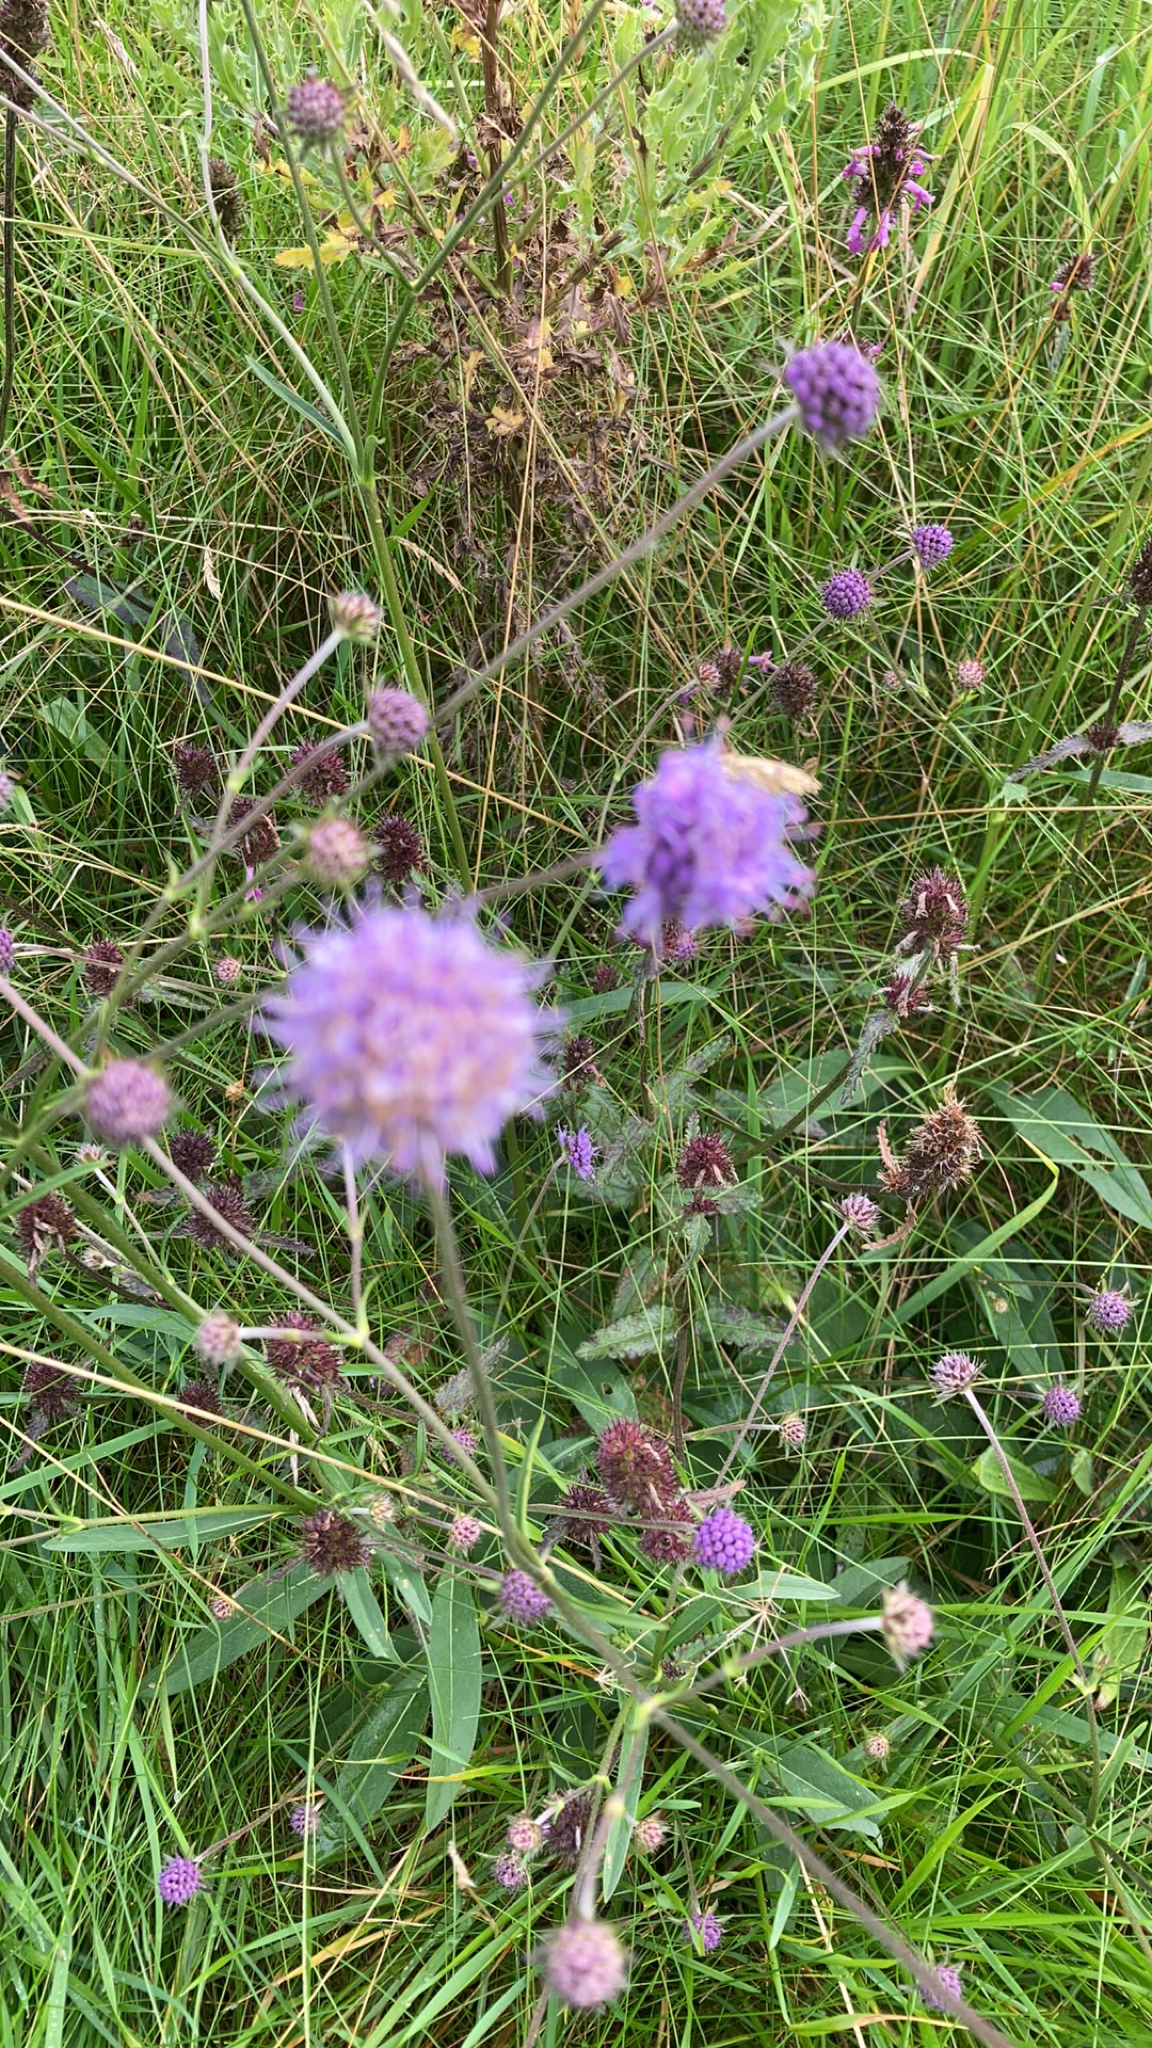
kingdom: Plantae
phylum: Tracheophyta
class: Magnoliopsida
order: Dipsacales
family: Caprifoliaceae
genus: Succisa
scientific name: Succisa pratensis
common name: Devil's-bit
